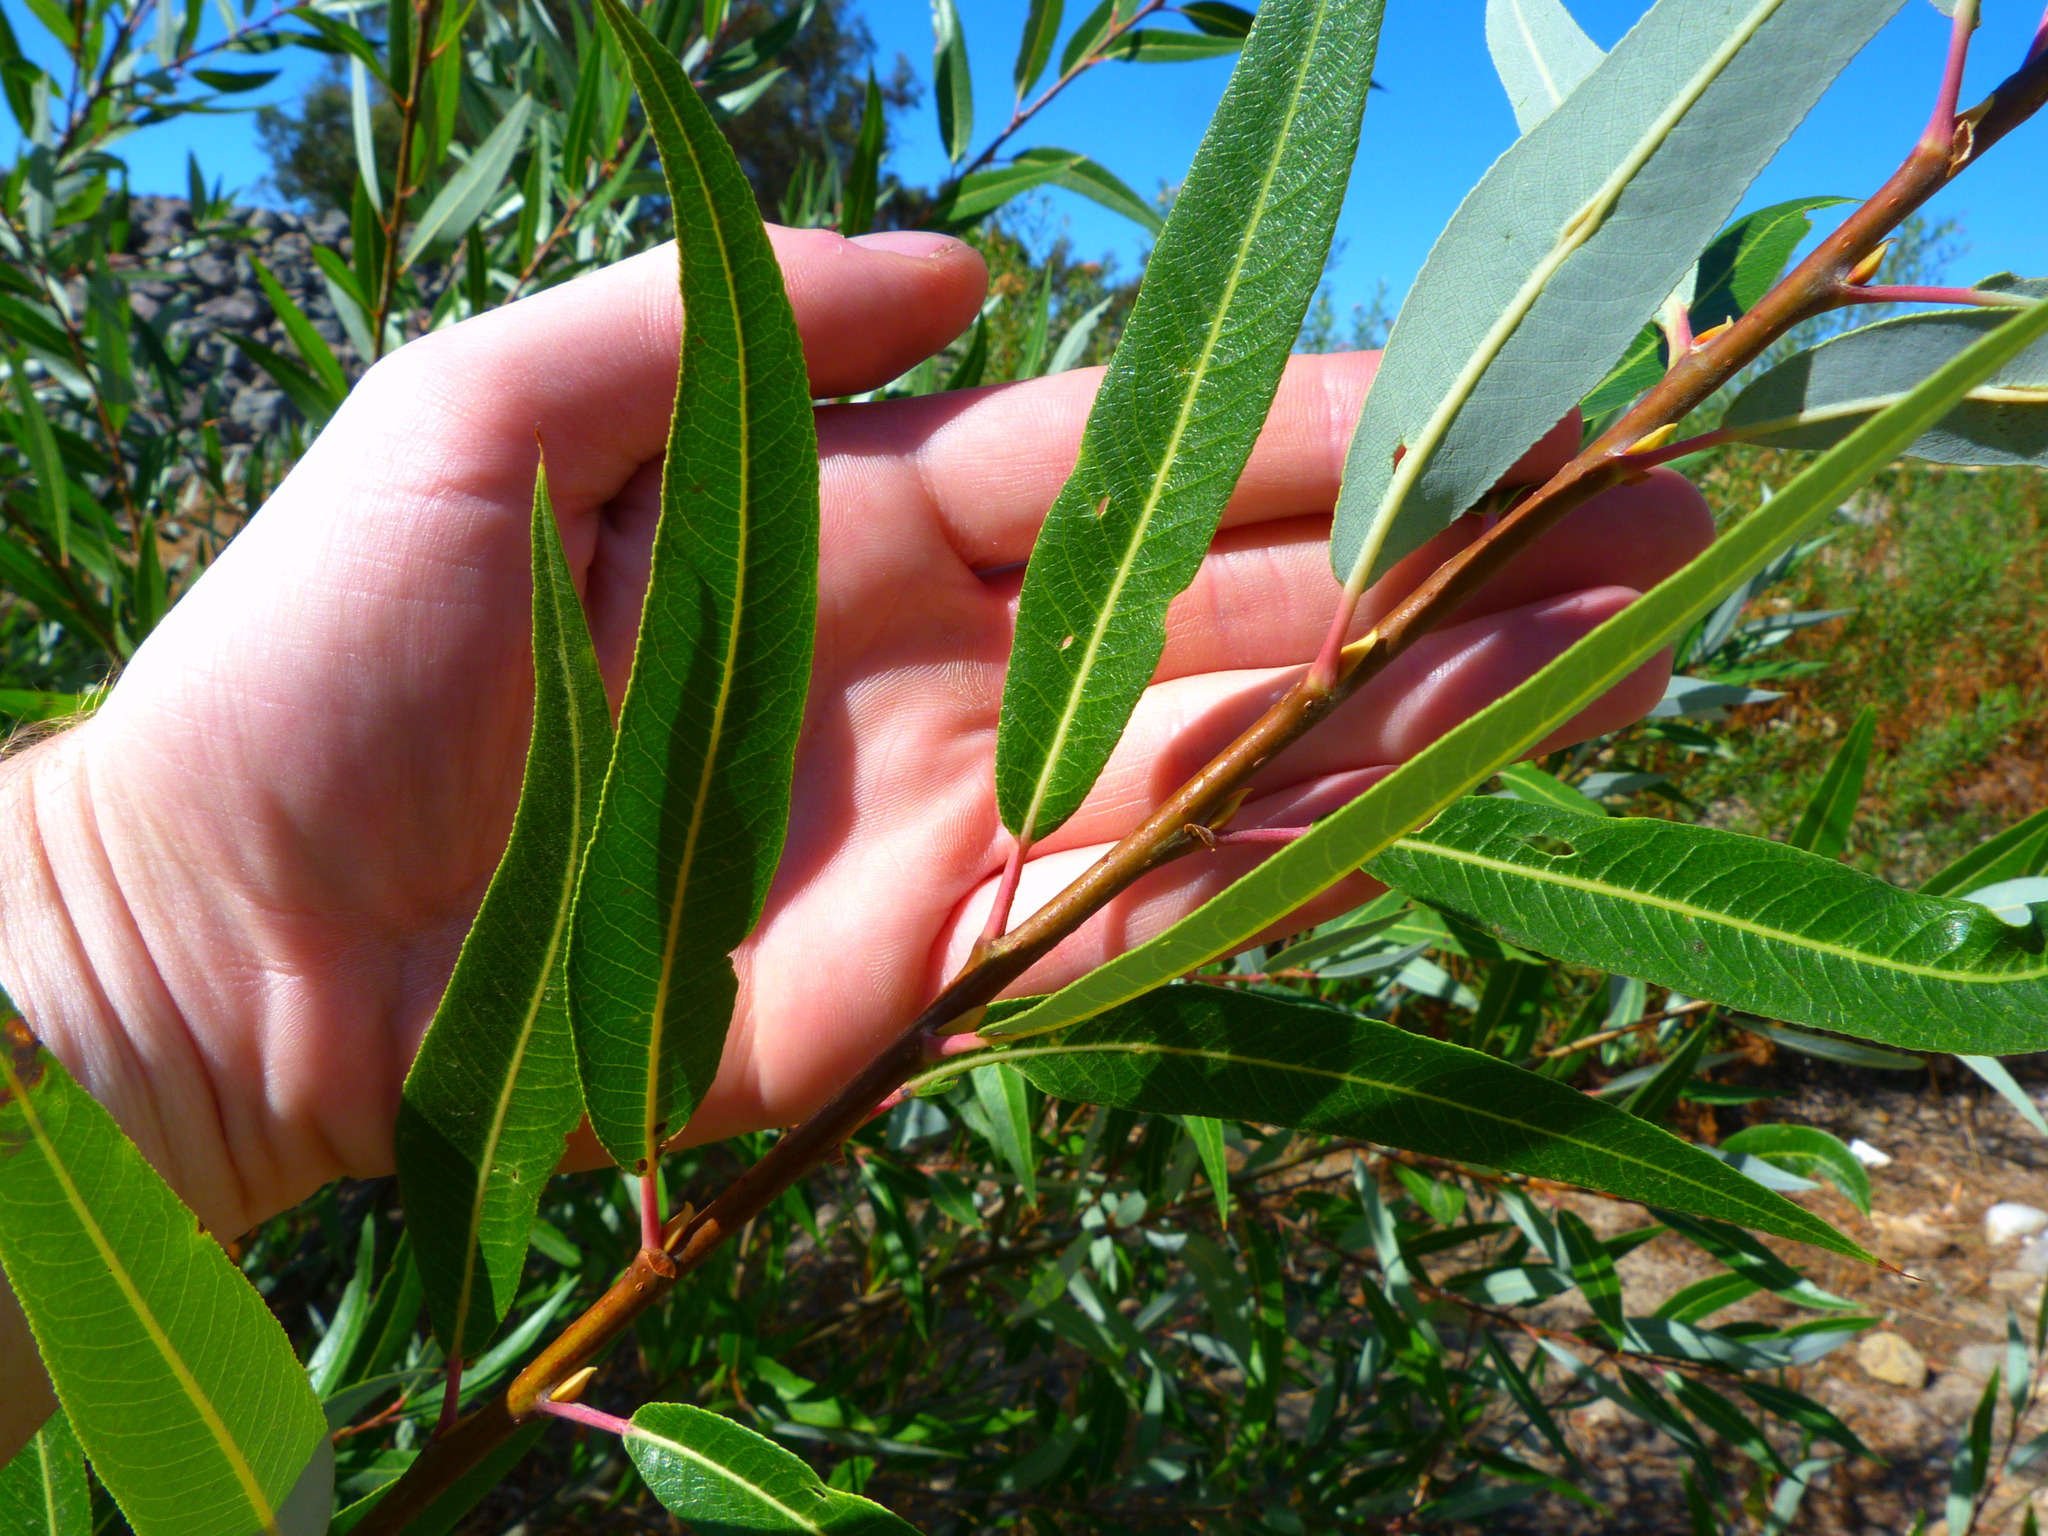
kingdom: Plantae
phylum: Tracheophyta
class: Magnoliopsida
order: Malpighiales
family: Salicaceae
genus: Salix
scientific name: Salix laevigata
